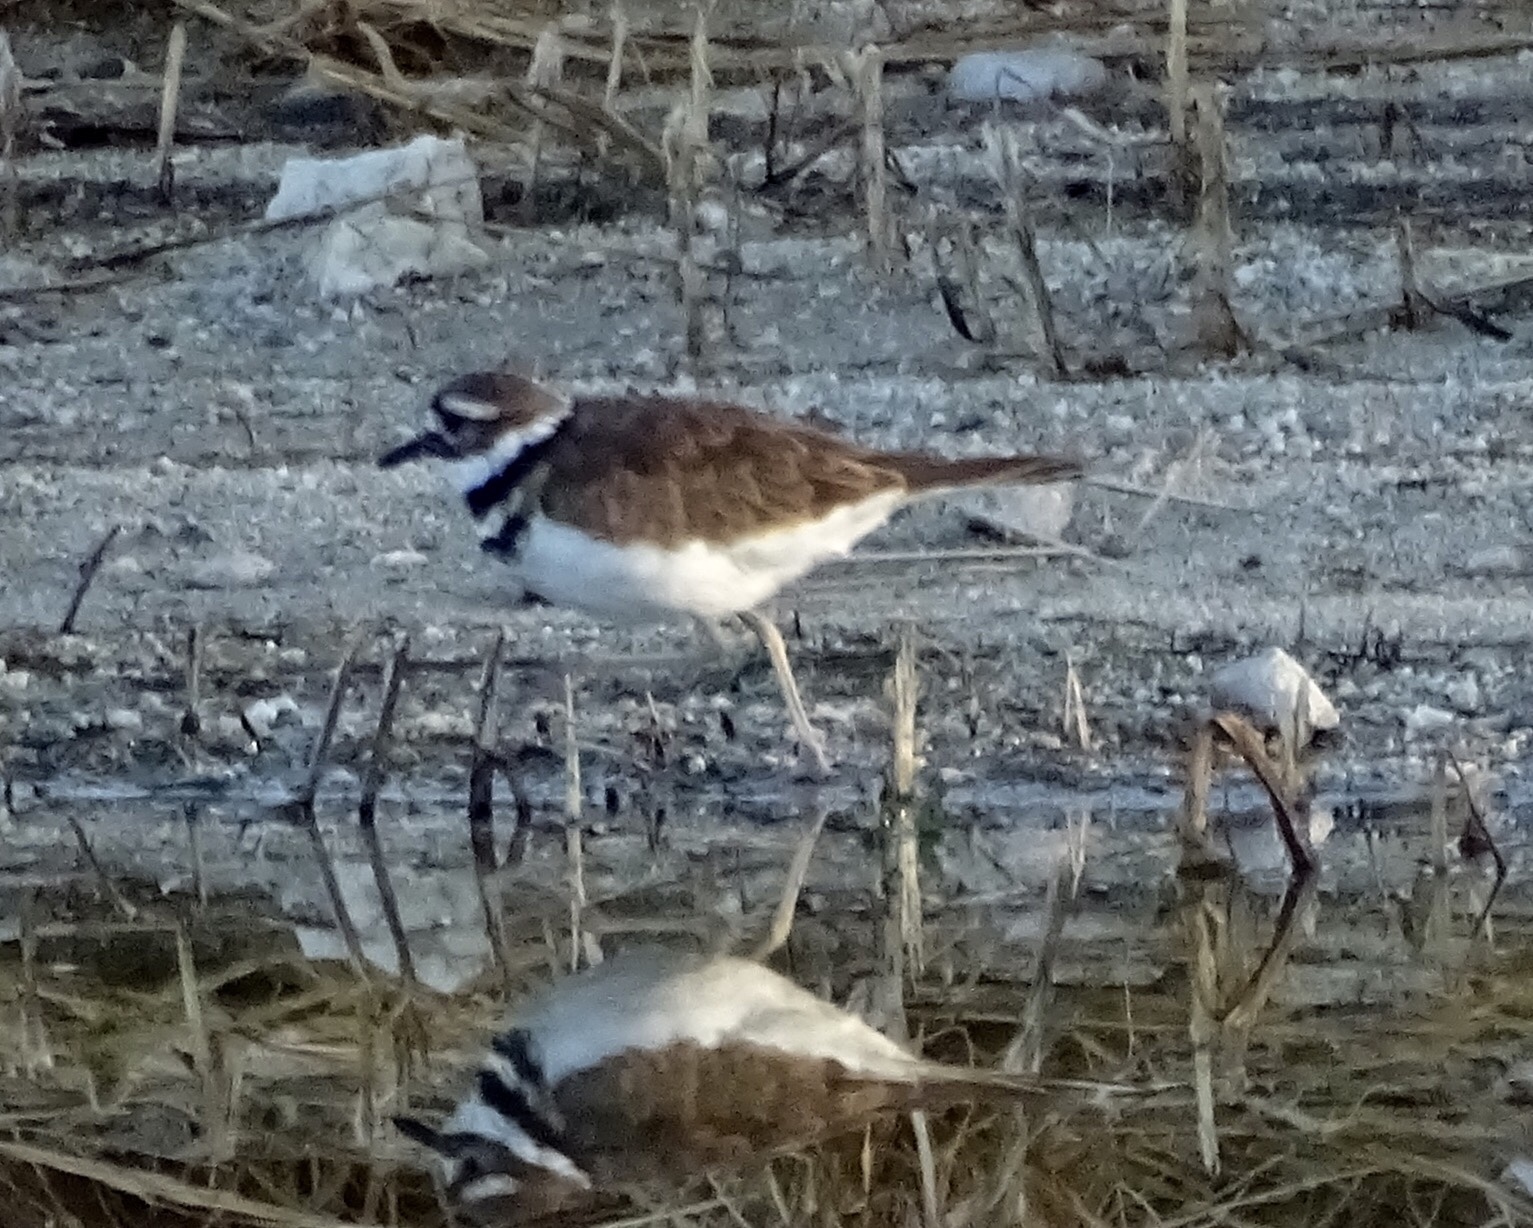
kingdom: Animalia
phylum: Chordata
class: Aves
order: Charadriiformes
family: Charadriidae
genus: Charadrius
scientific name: Charadrius vociferus
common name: Killdeer
